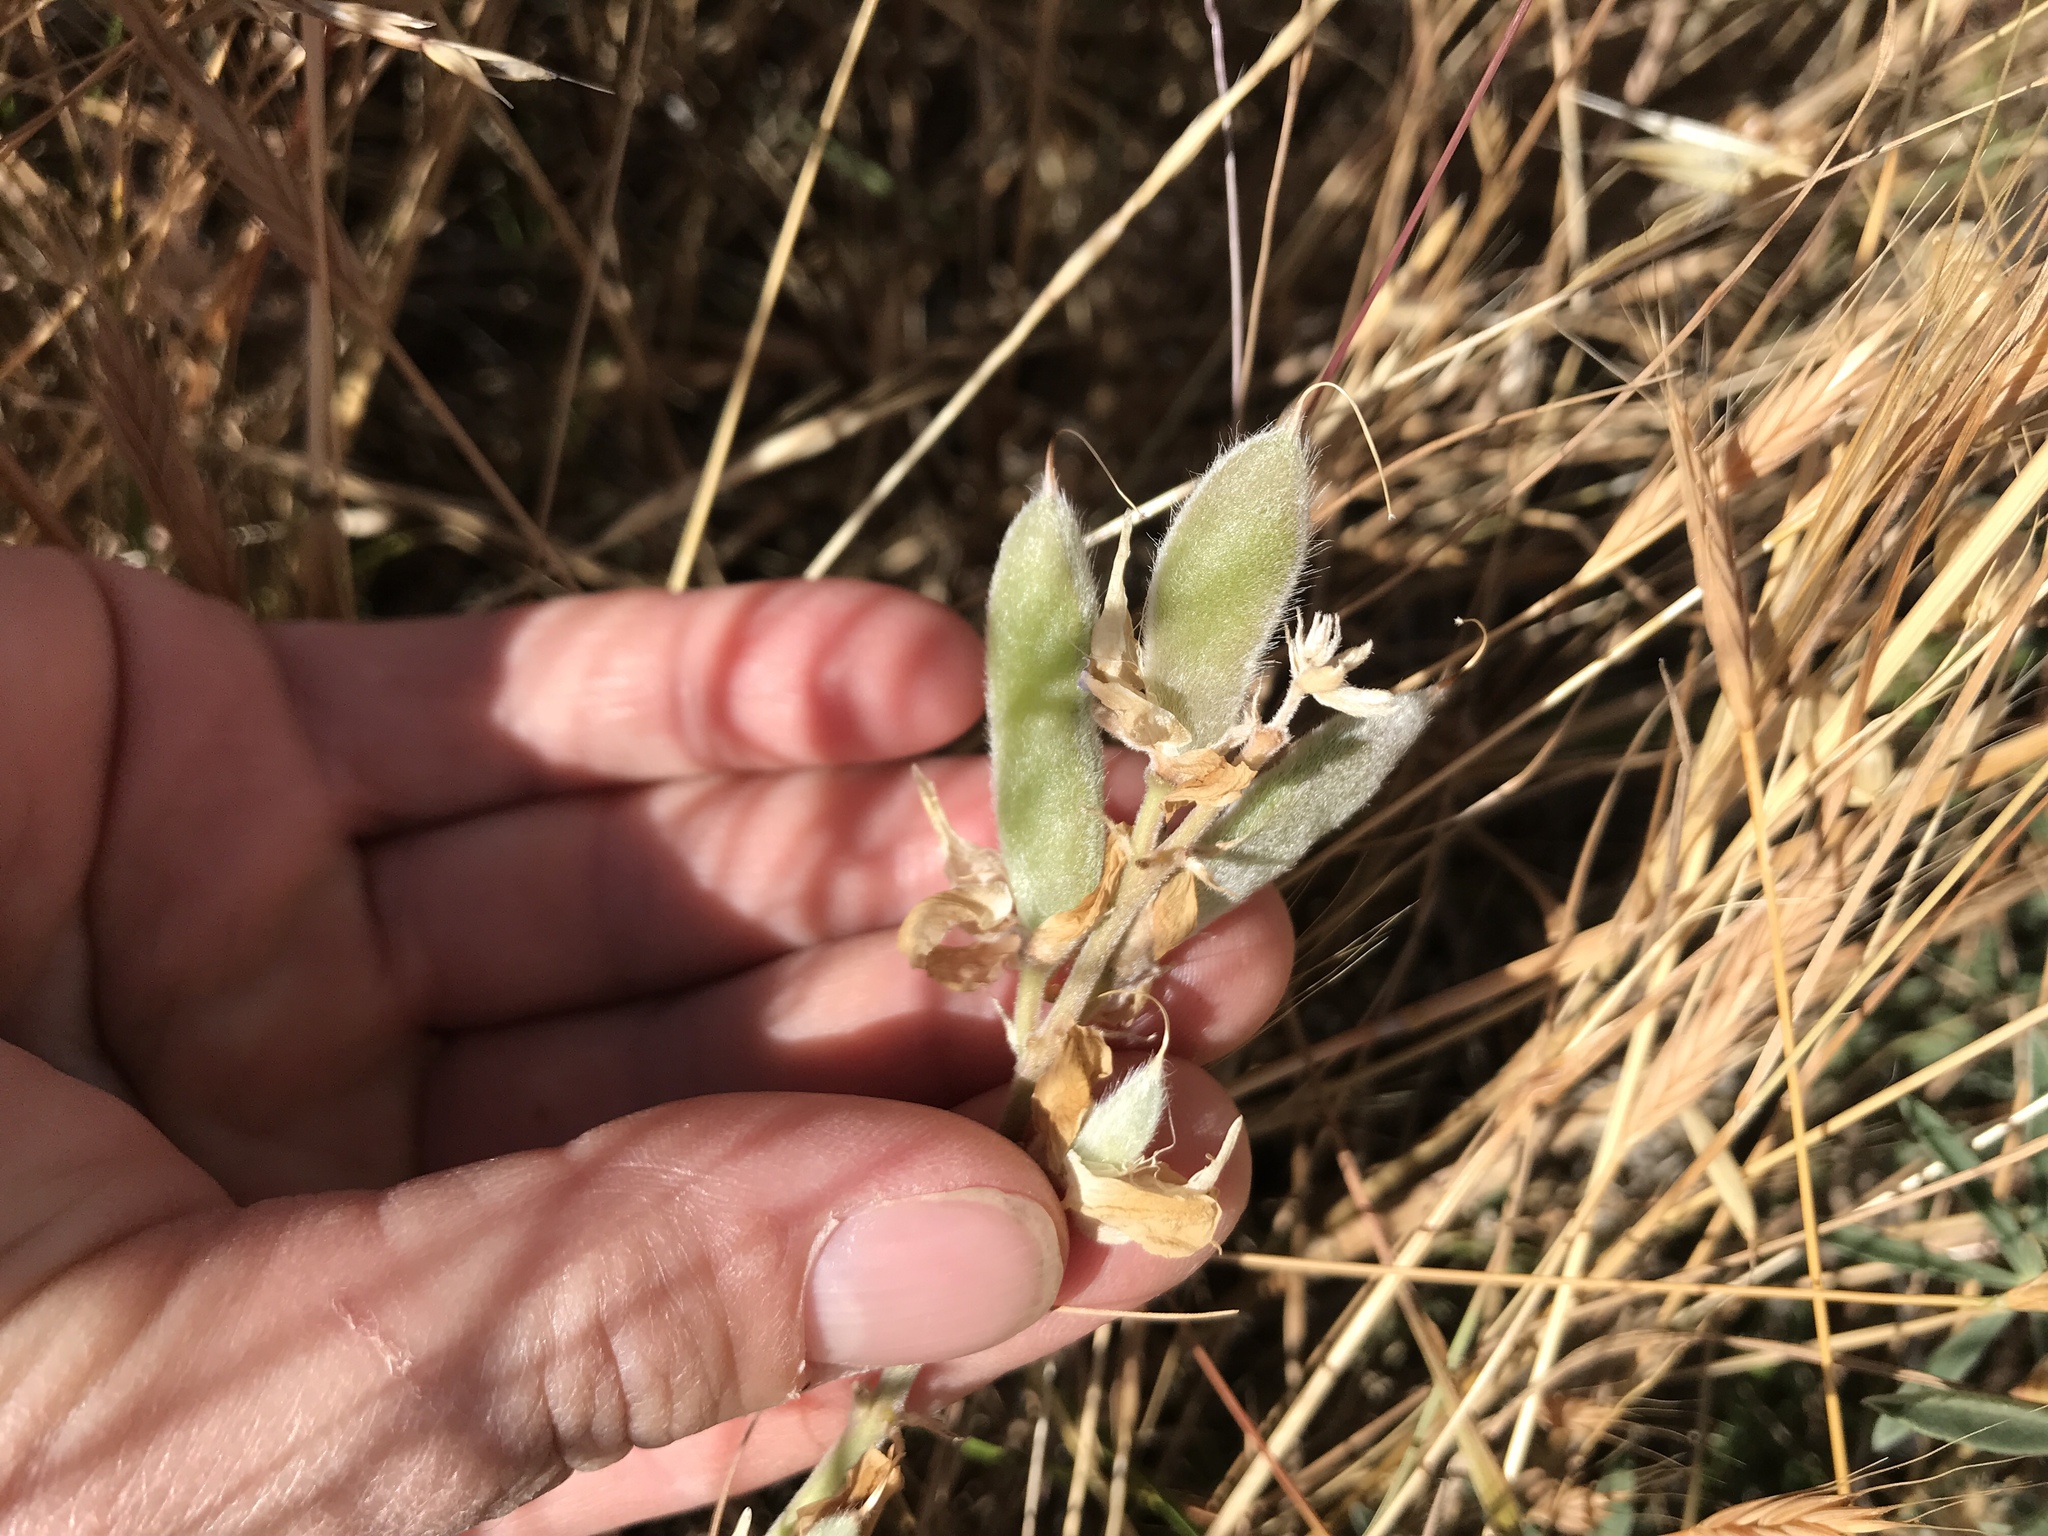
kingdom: Plantae
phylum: Tracheophyta
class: Magnoliopsida
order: Fabales
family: Fabaceae
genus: Lupinus
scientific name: Lupinus formosus
